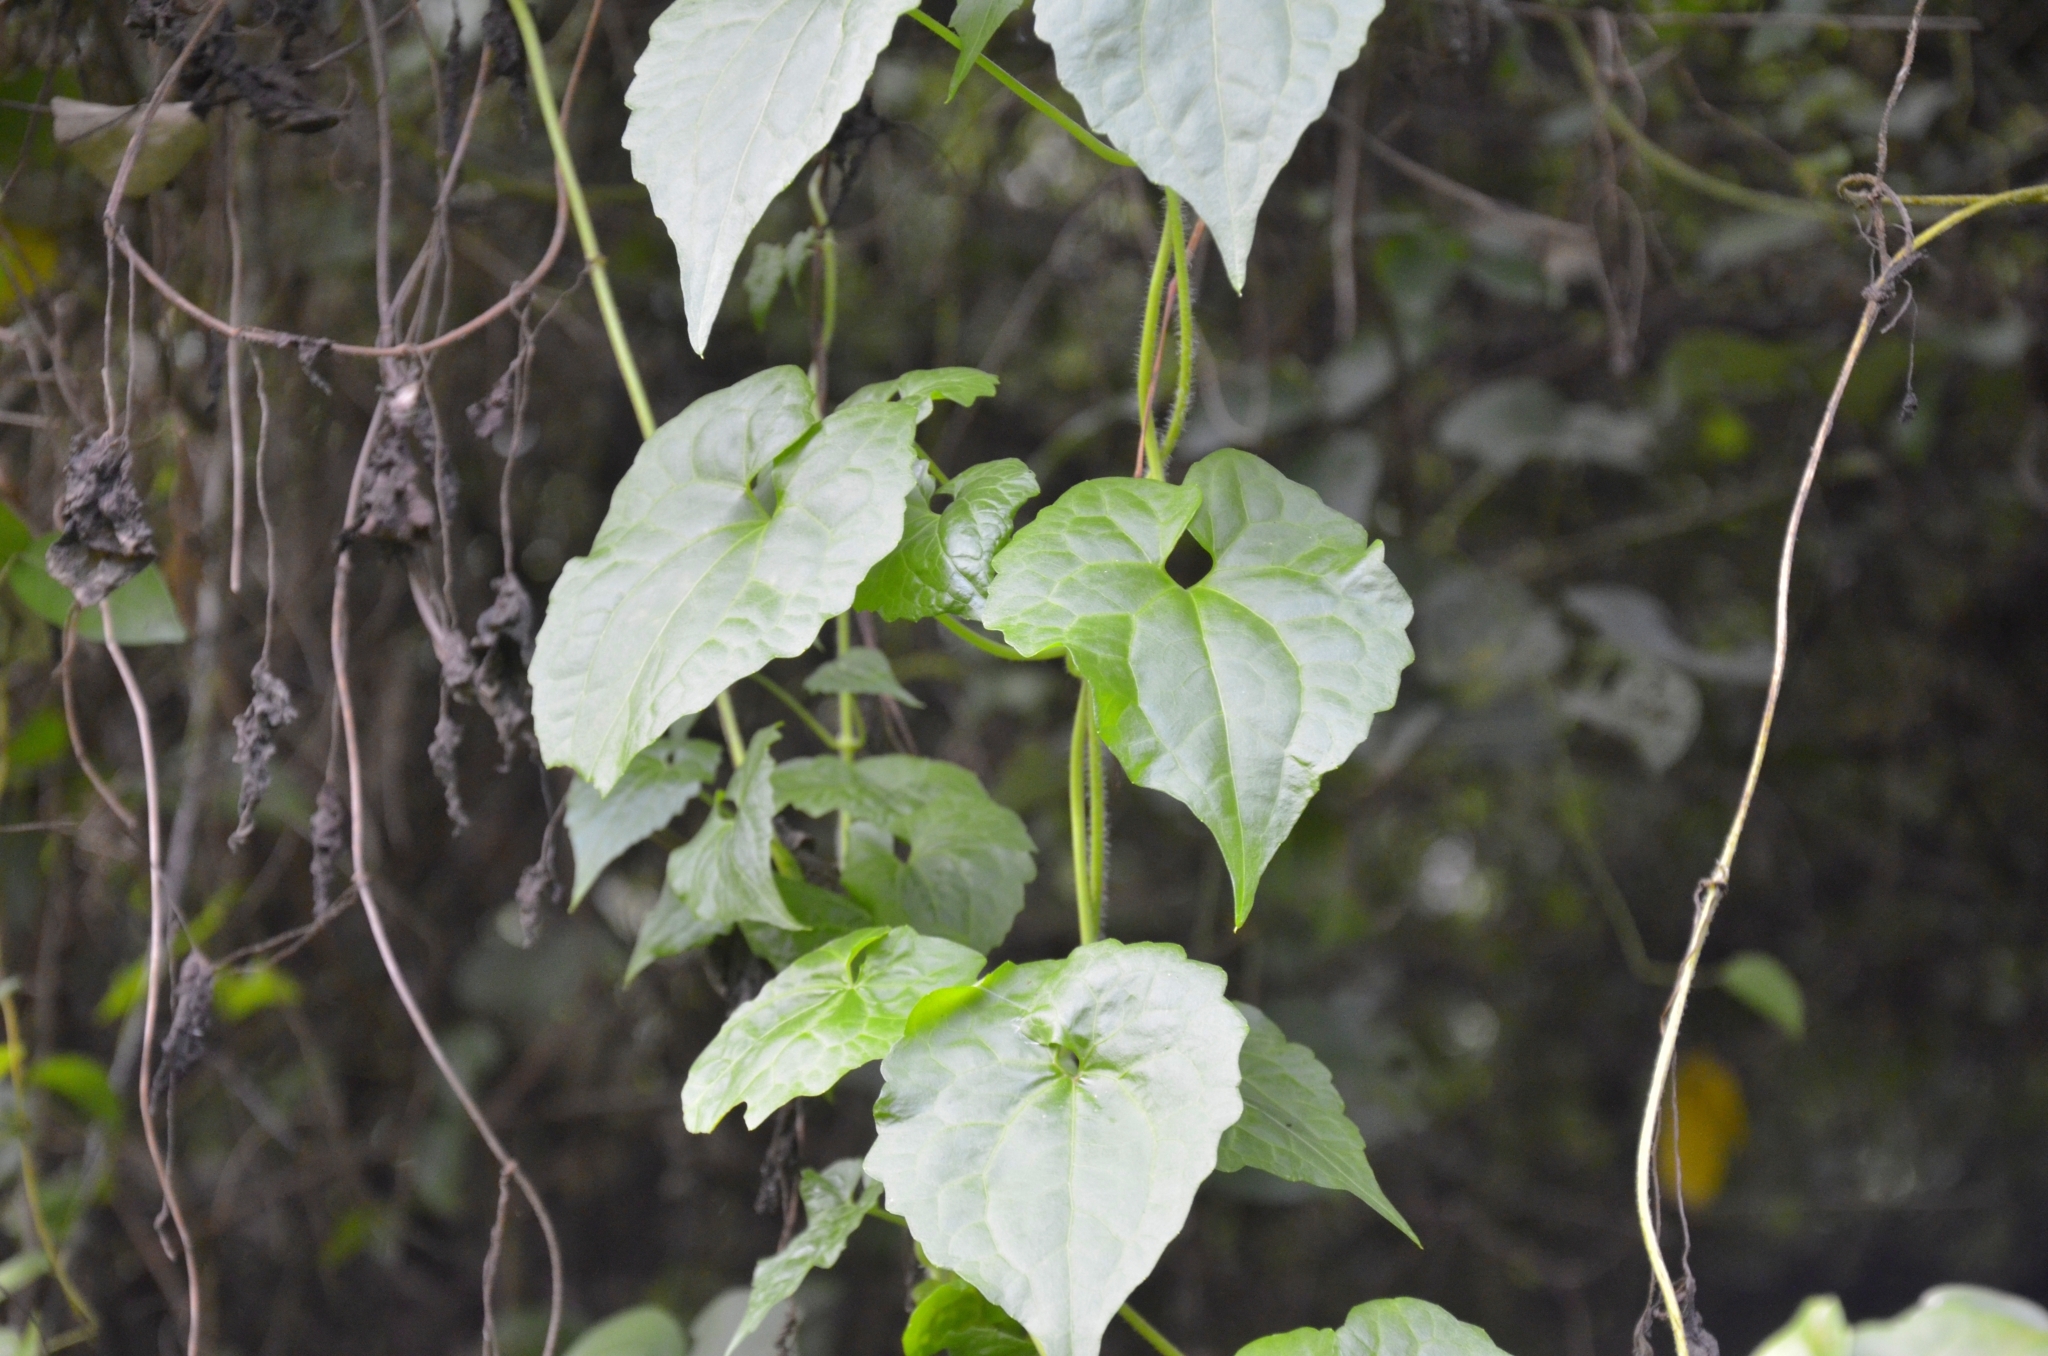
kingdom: Plantae
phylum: Tracheophyta
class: Magnoliopsida
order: Asterales
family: Asteraceae
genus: Mikania
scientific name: Mikania micrantha
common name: Mile-a-minute
